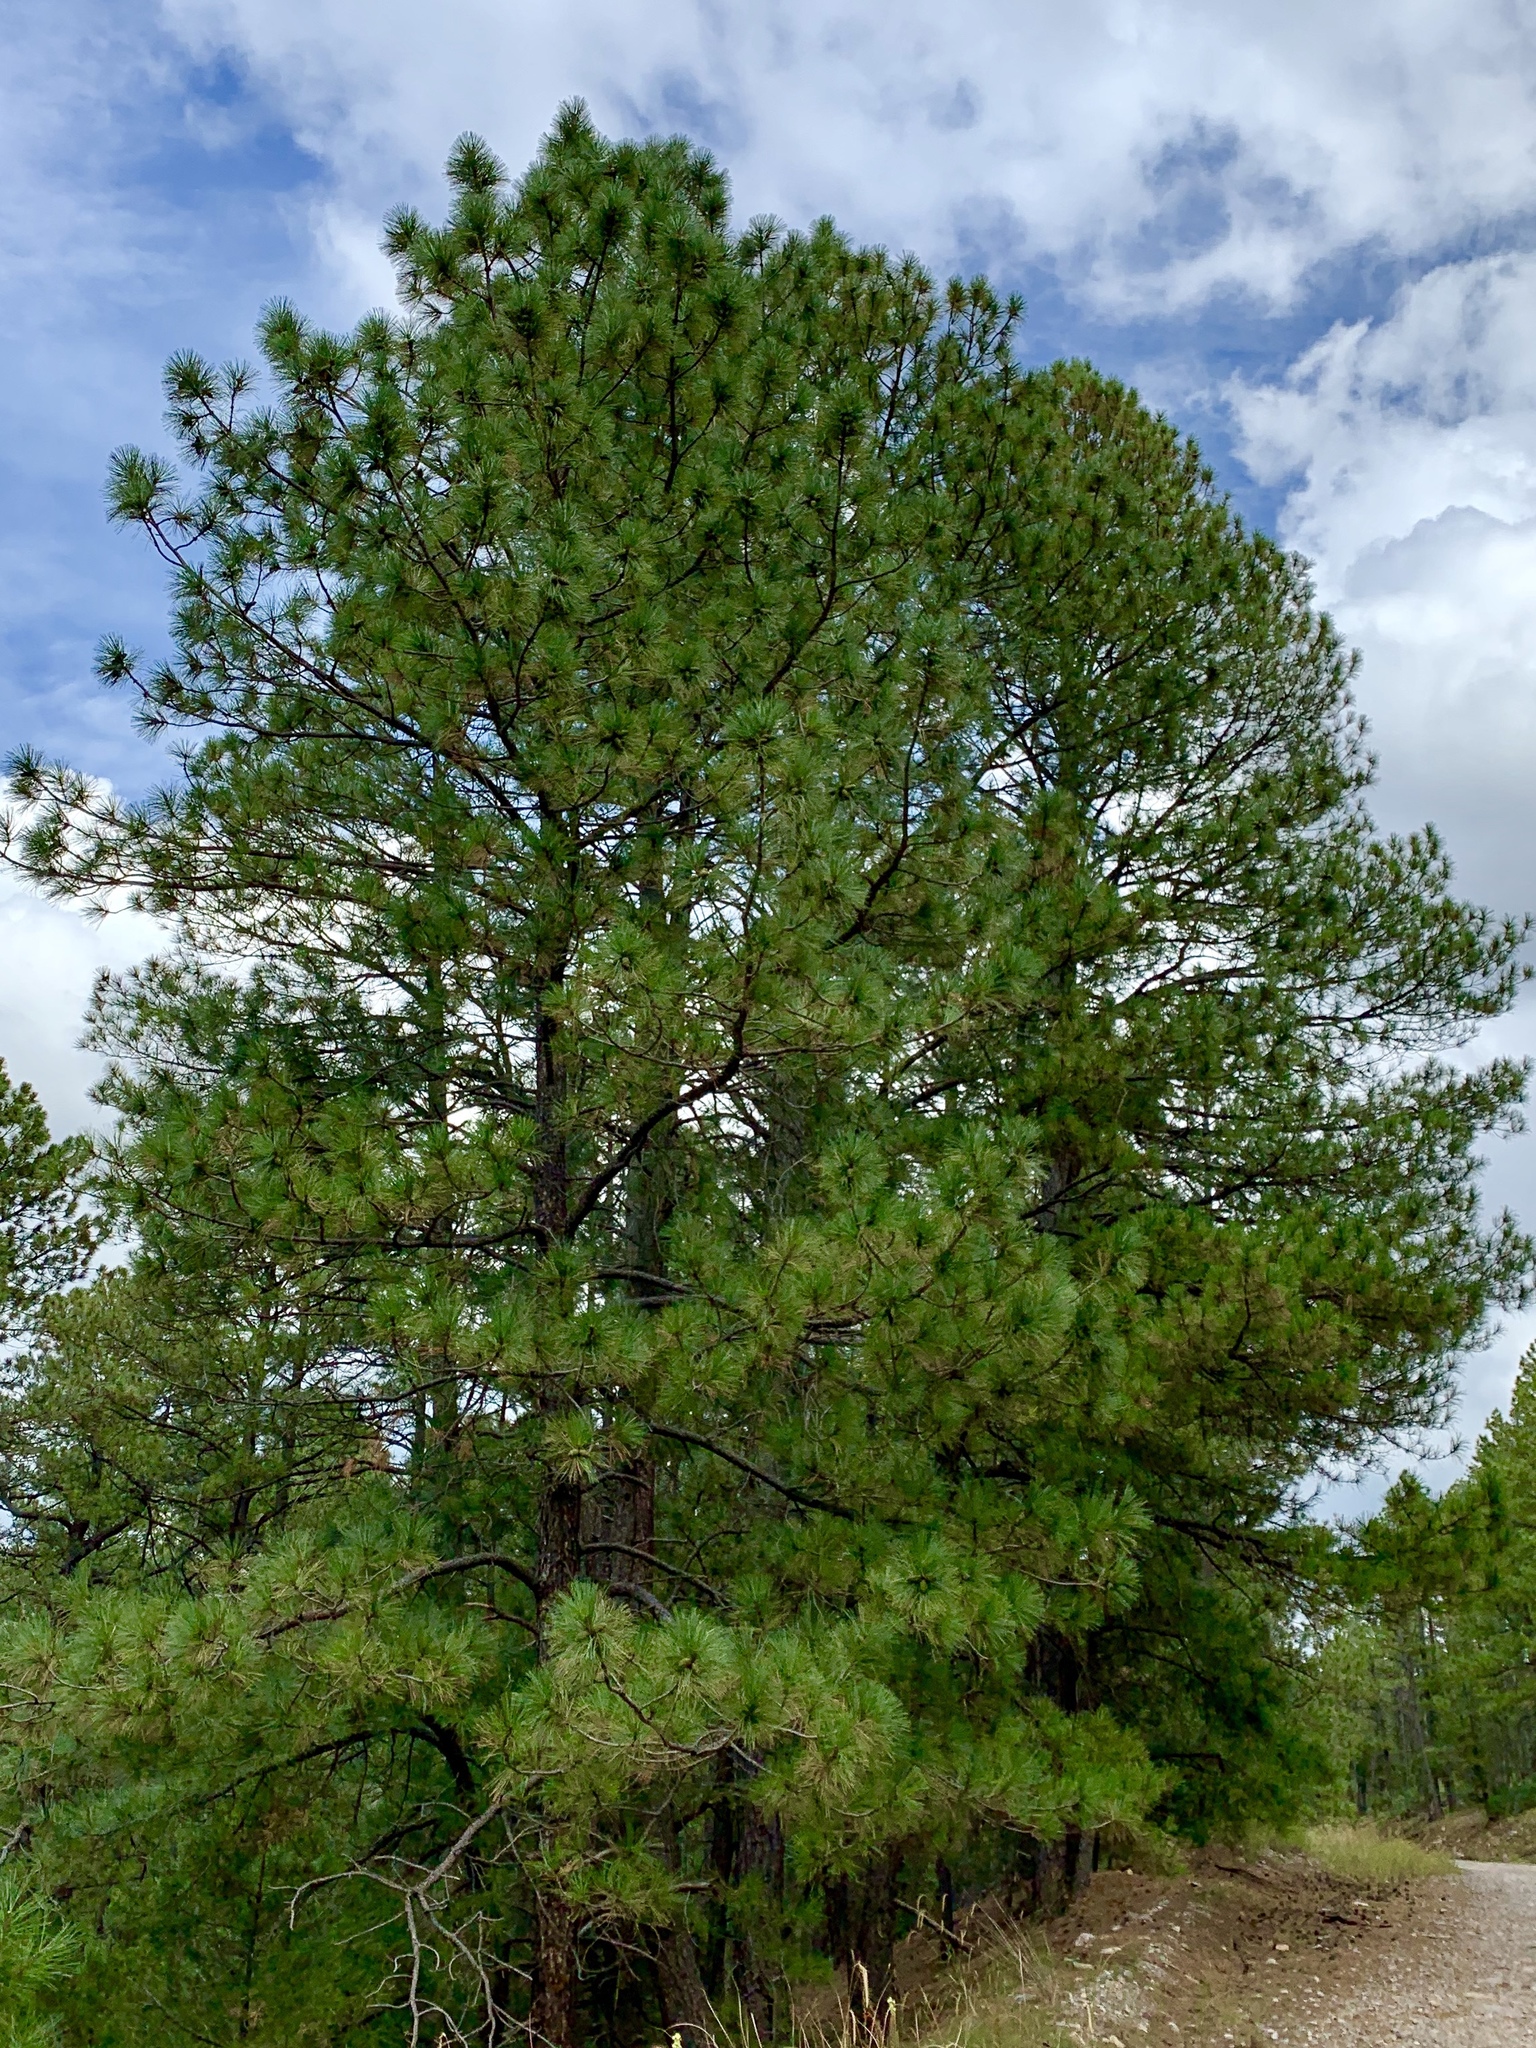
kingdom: Plantae
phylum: Tracheophyta
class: Pinopsida
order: Pinales
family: Pinaceae
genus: Pinus
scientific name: Pinus ponderosa
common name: Western yellow-pine
